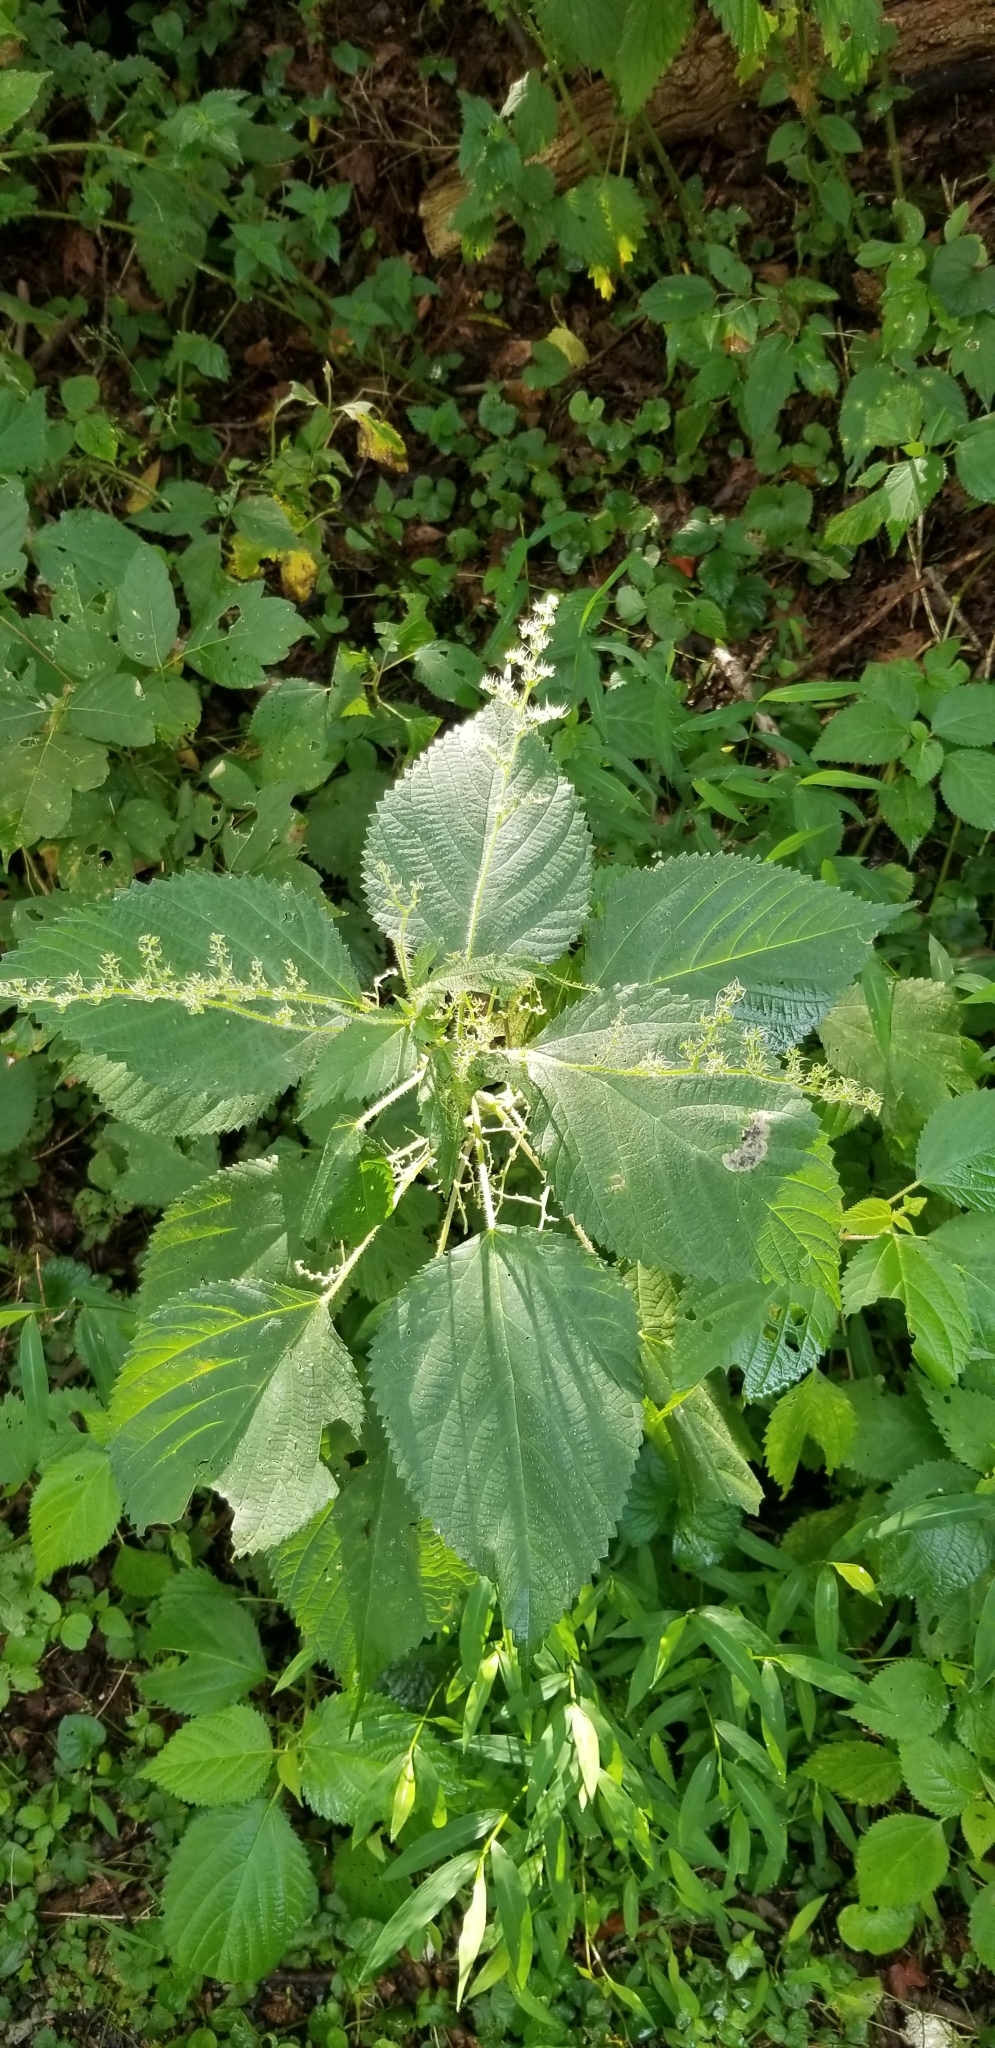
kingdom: Plantae
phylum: Tracheophyta
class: Magnoliopsida
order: Rosales
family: Urticaceae
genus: Laportea
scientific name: Laportea canadensis
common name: Canada nettle
